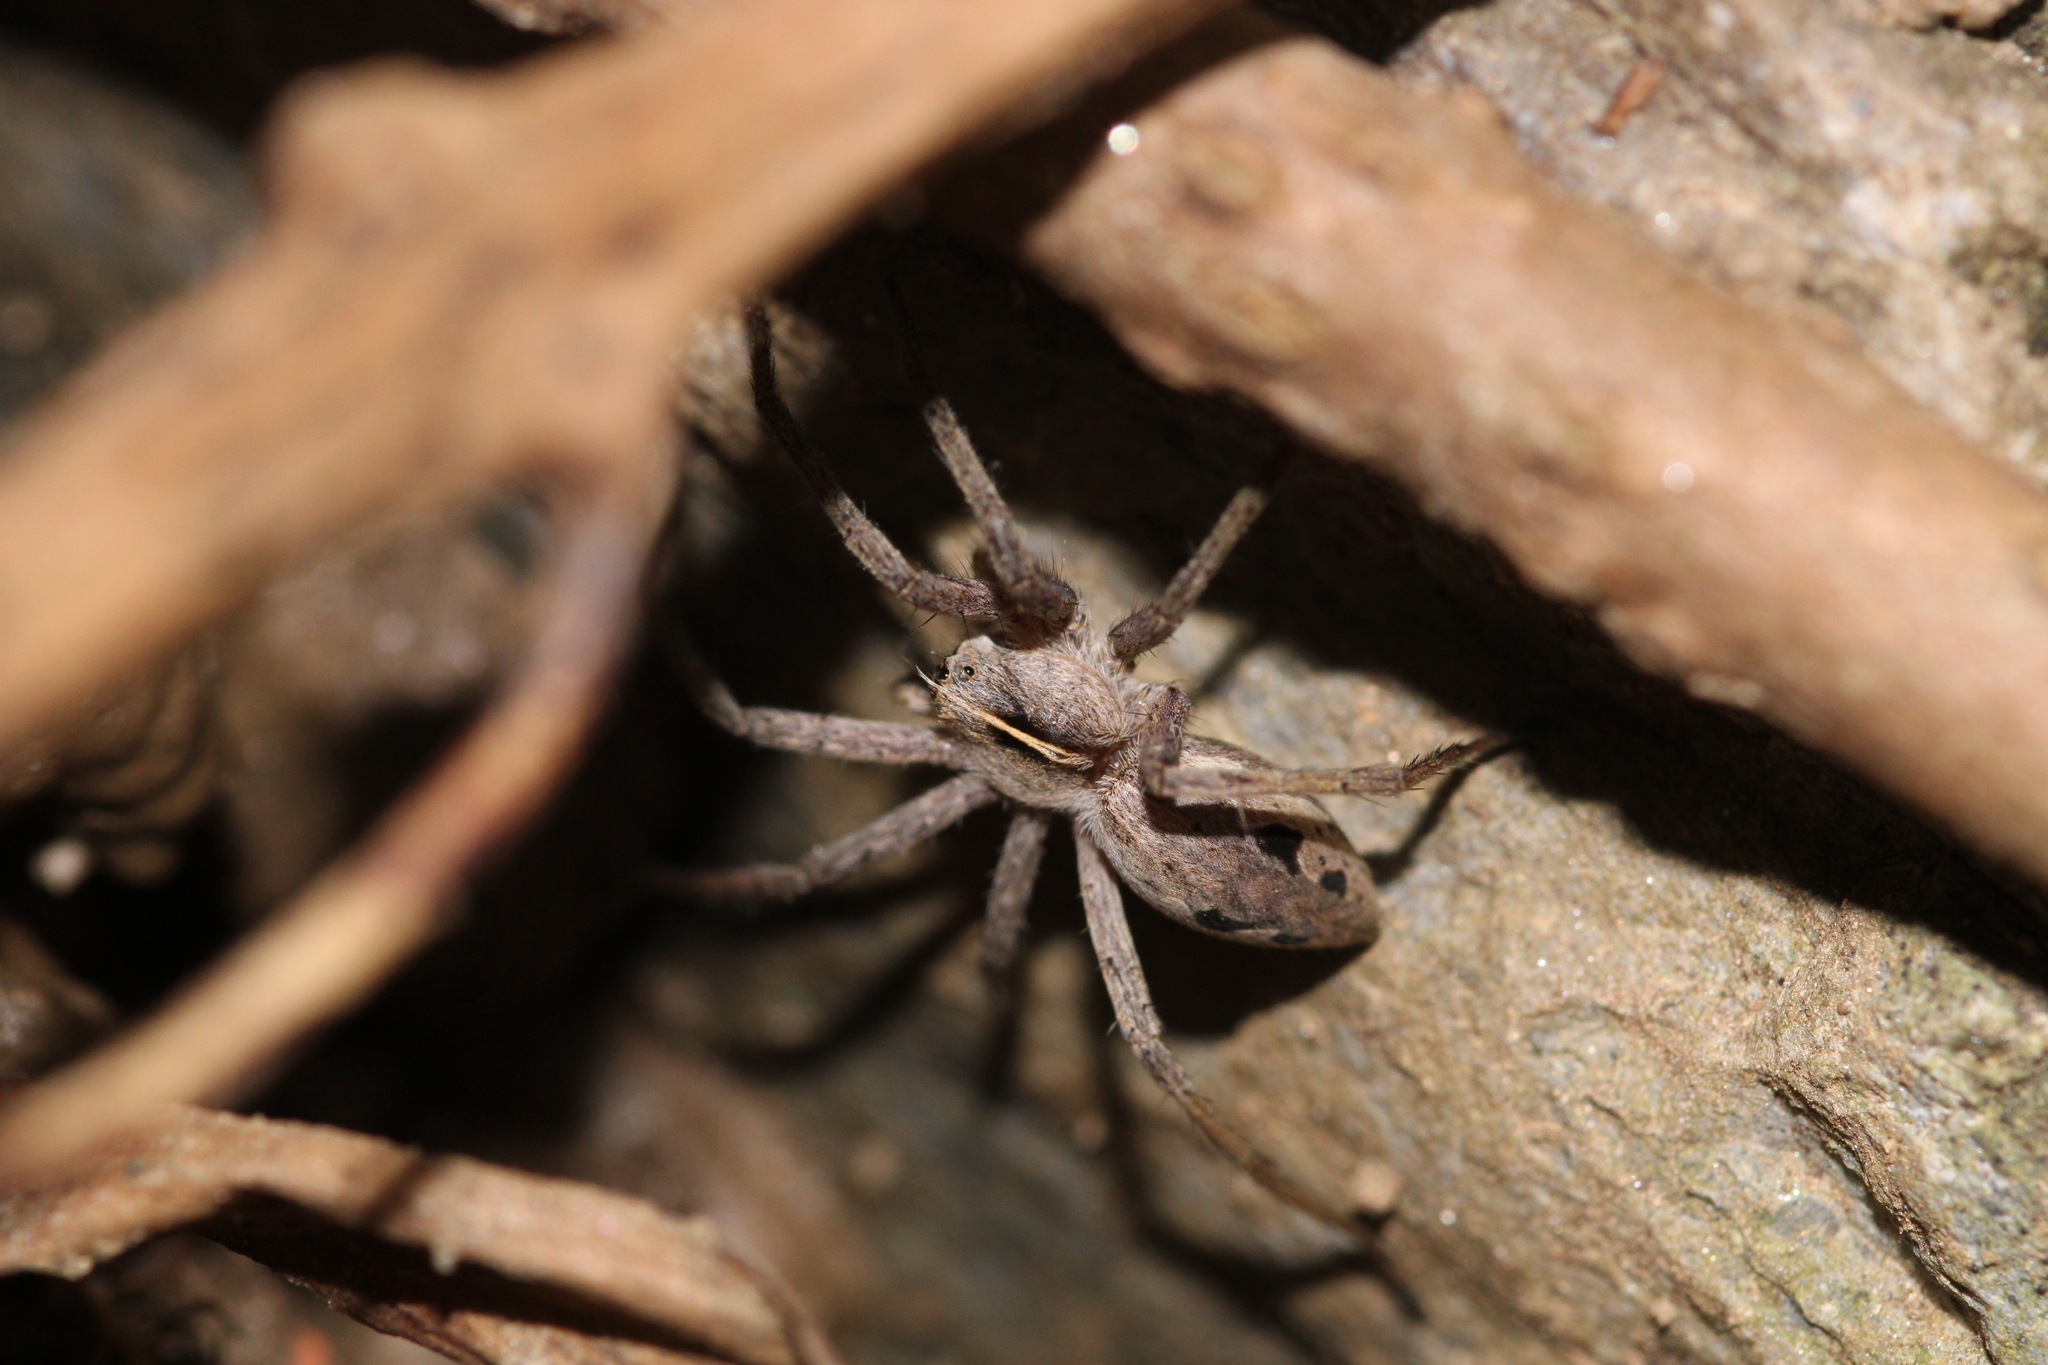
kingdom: Animalia
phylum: Arthropoda
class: Arachnida
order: Araneae
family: Pisauridae
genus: Pisaura
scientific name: Pisaura mirabilis
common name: Tent spider
